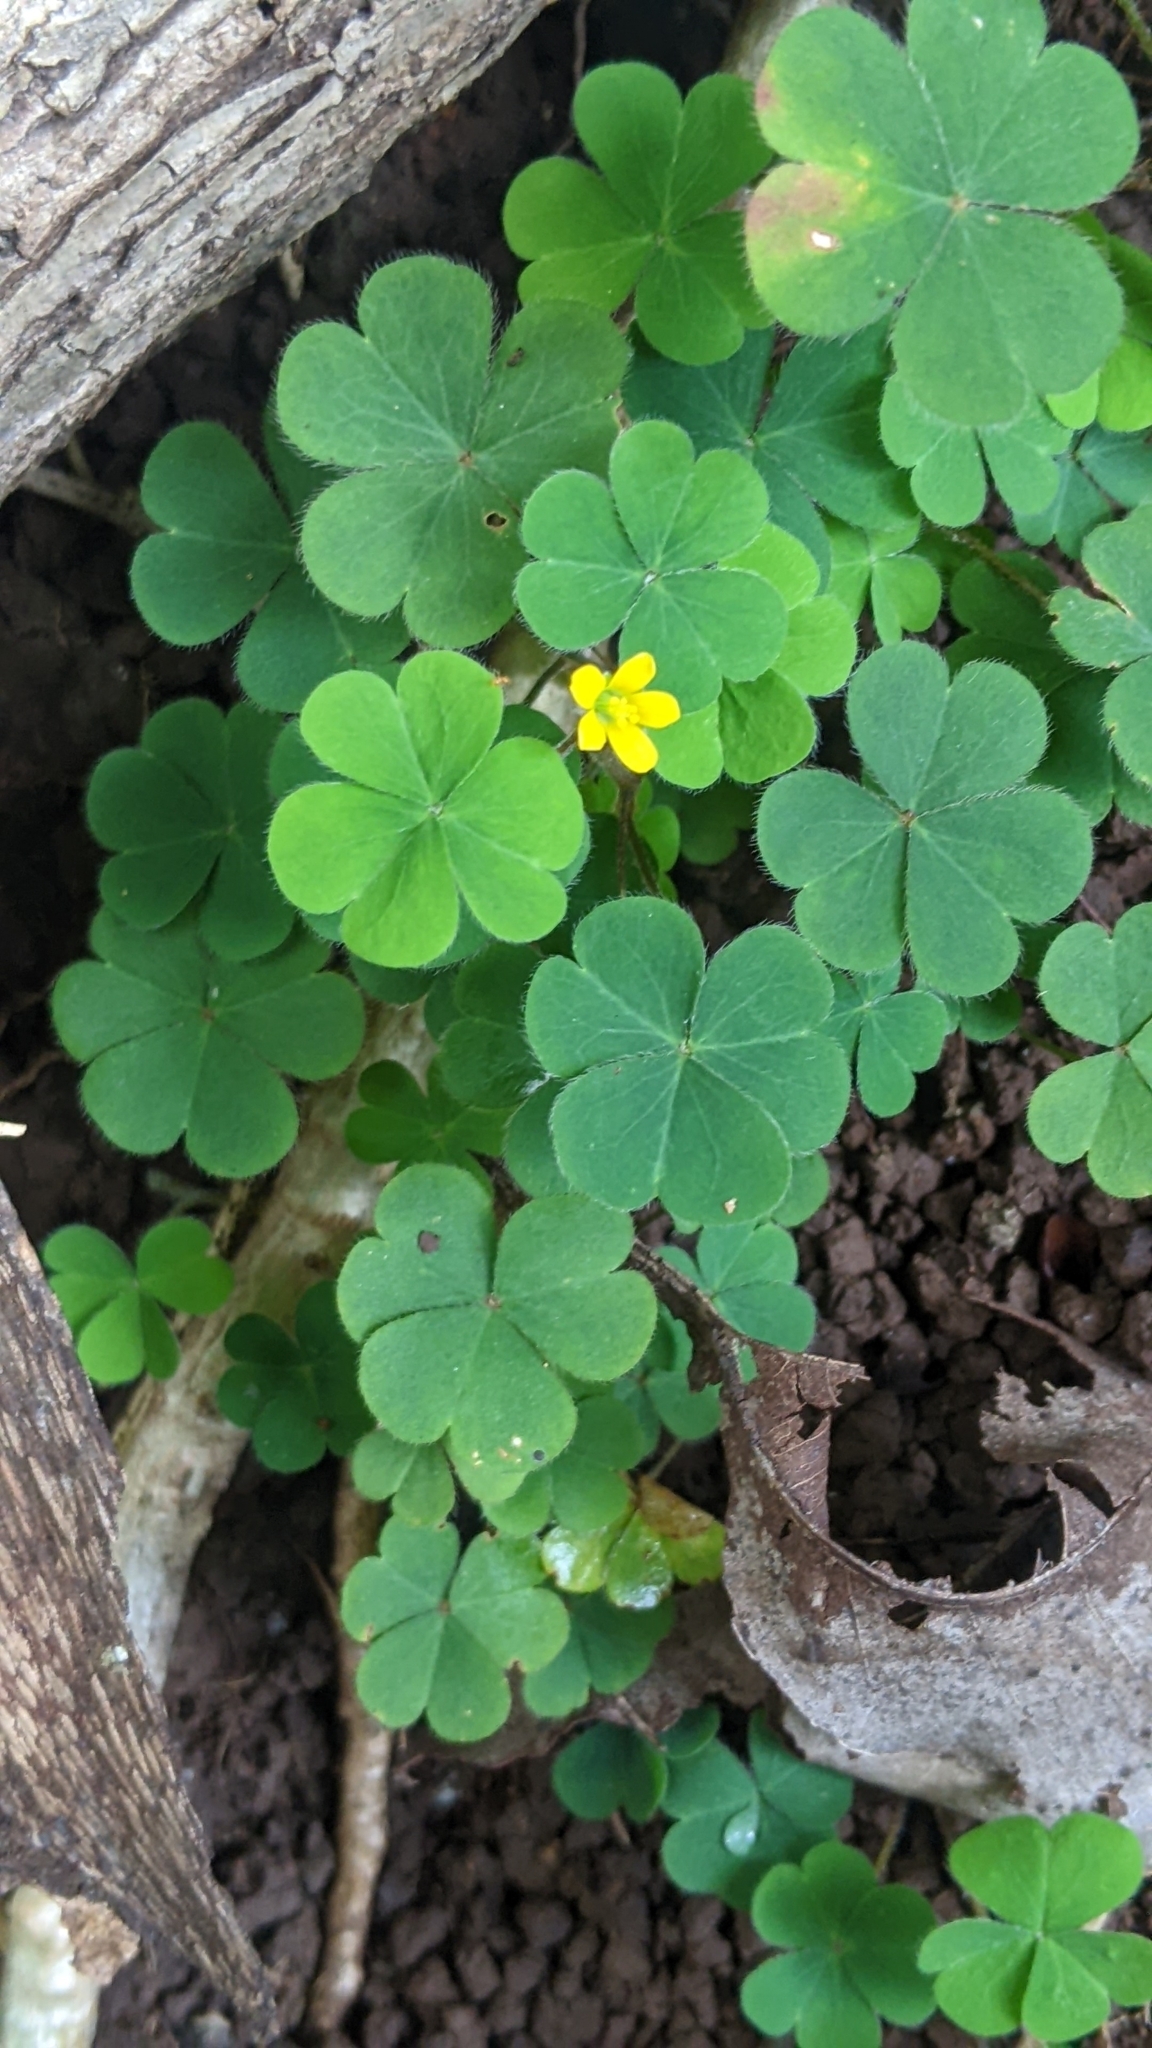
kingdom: Plantae
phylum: Tracheophyta
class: Magnoliopsida
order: Oxalidales
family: Oxalidaceae
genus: Oxalis
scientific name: Oxalis corniculata
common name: Procumbent yellow-sorrel
